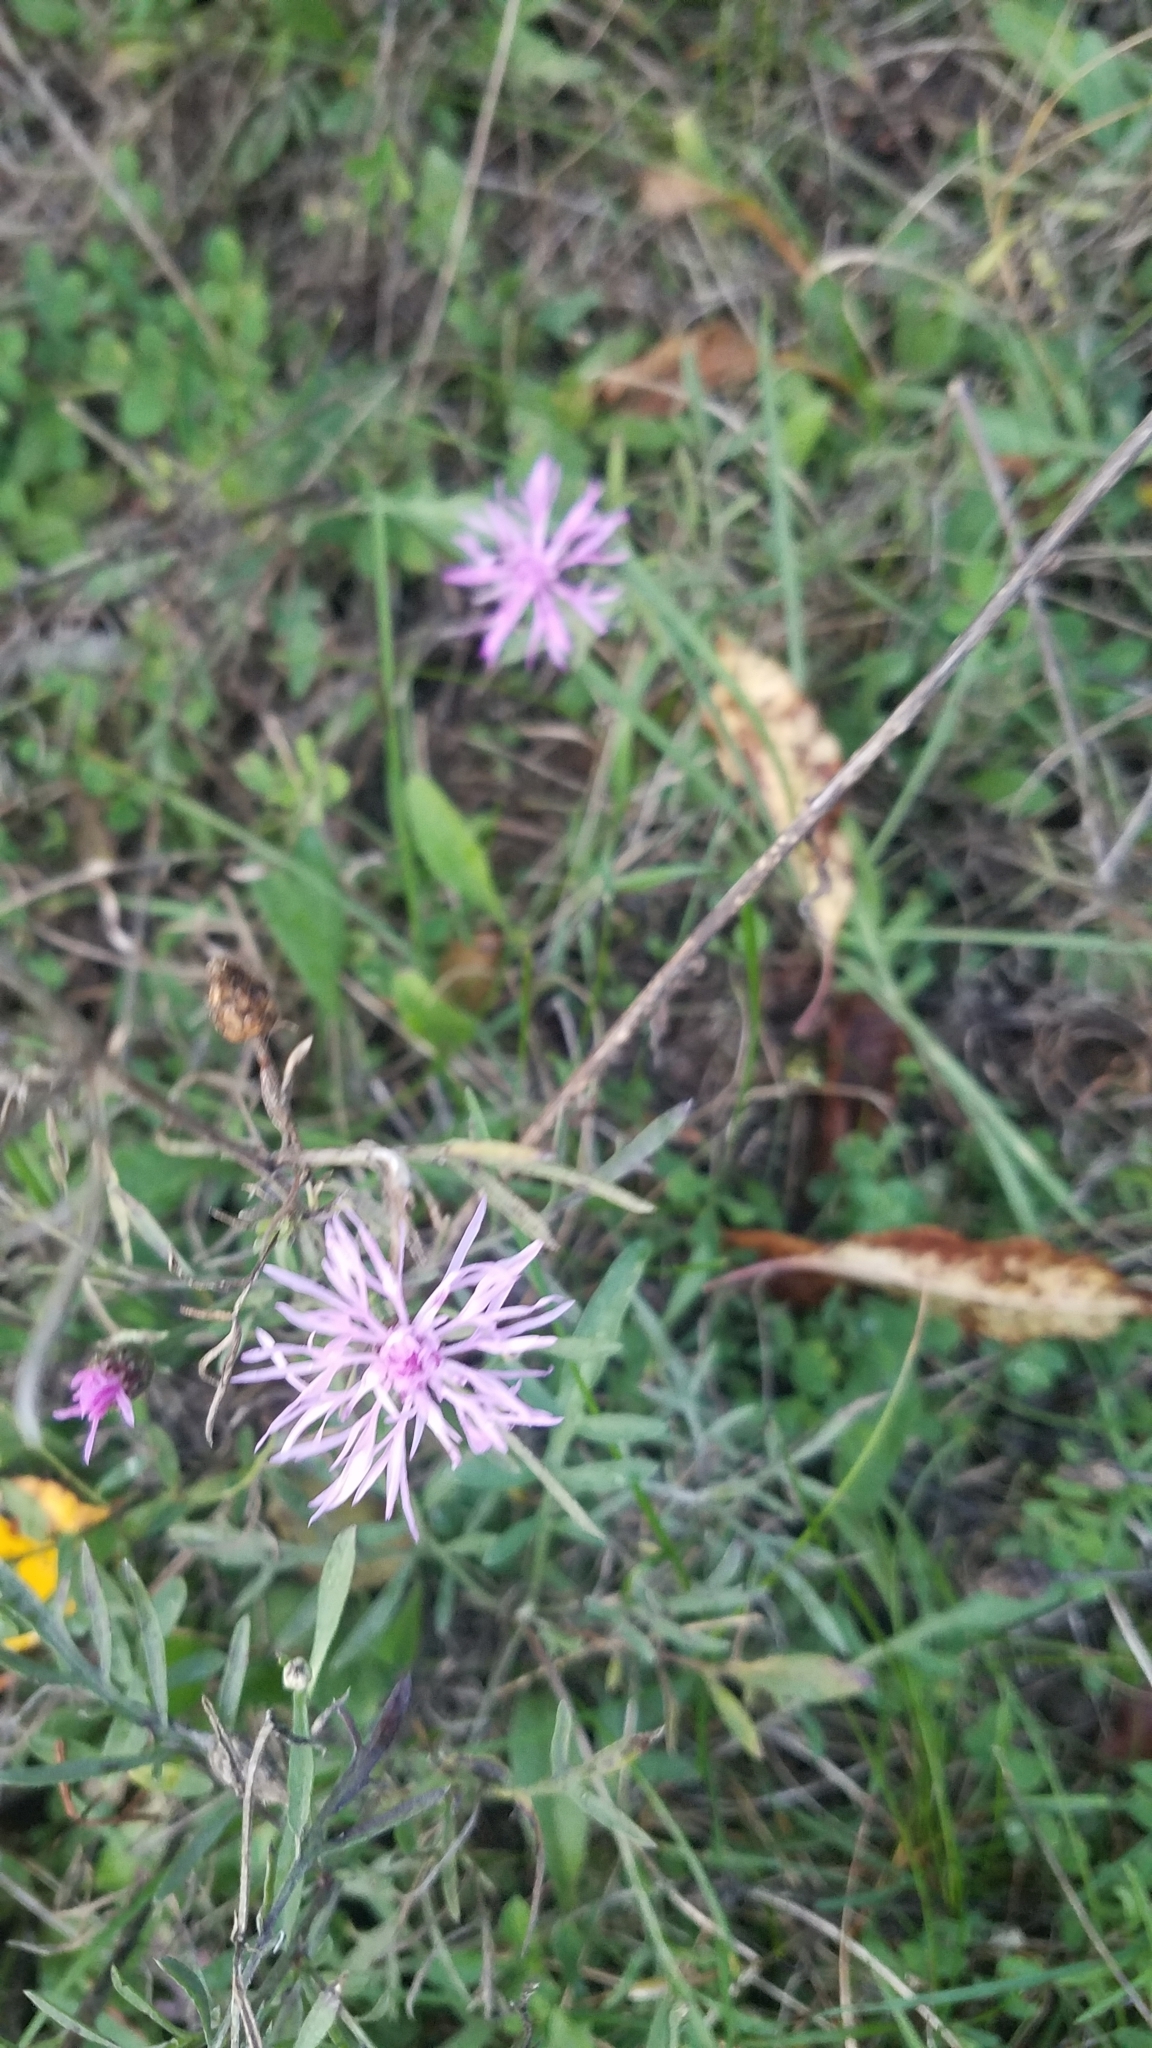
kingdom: Plantae
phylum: Tracheophyta
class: Magnoliopsida
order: Asterales
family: Asteraceae
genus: Centaurea
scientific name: Centaurea stoebe
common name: Spotted knapweed
